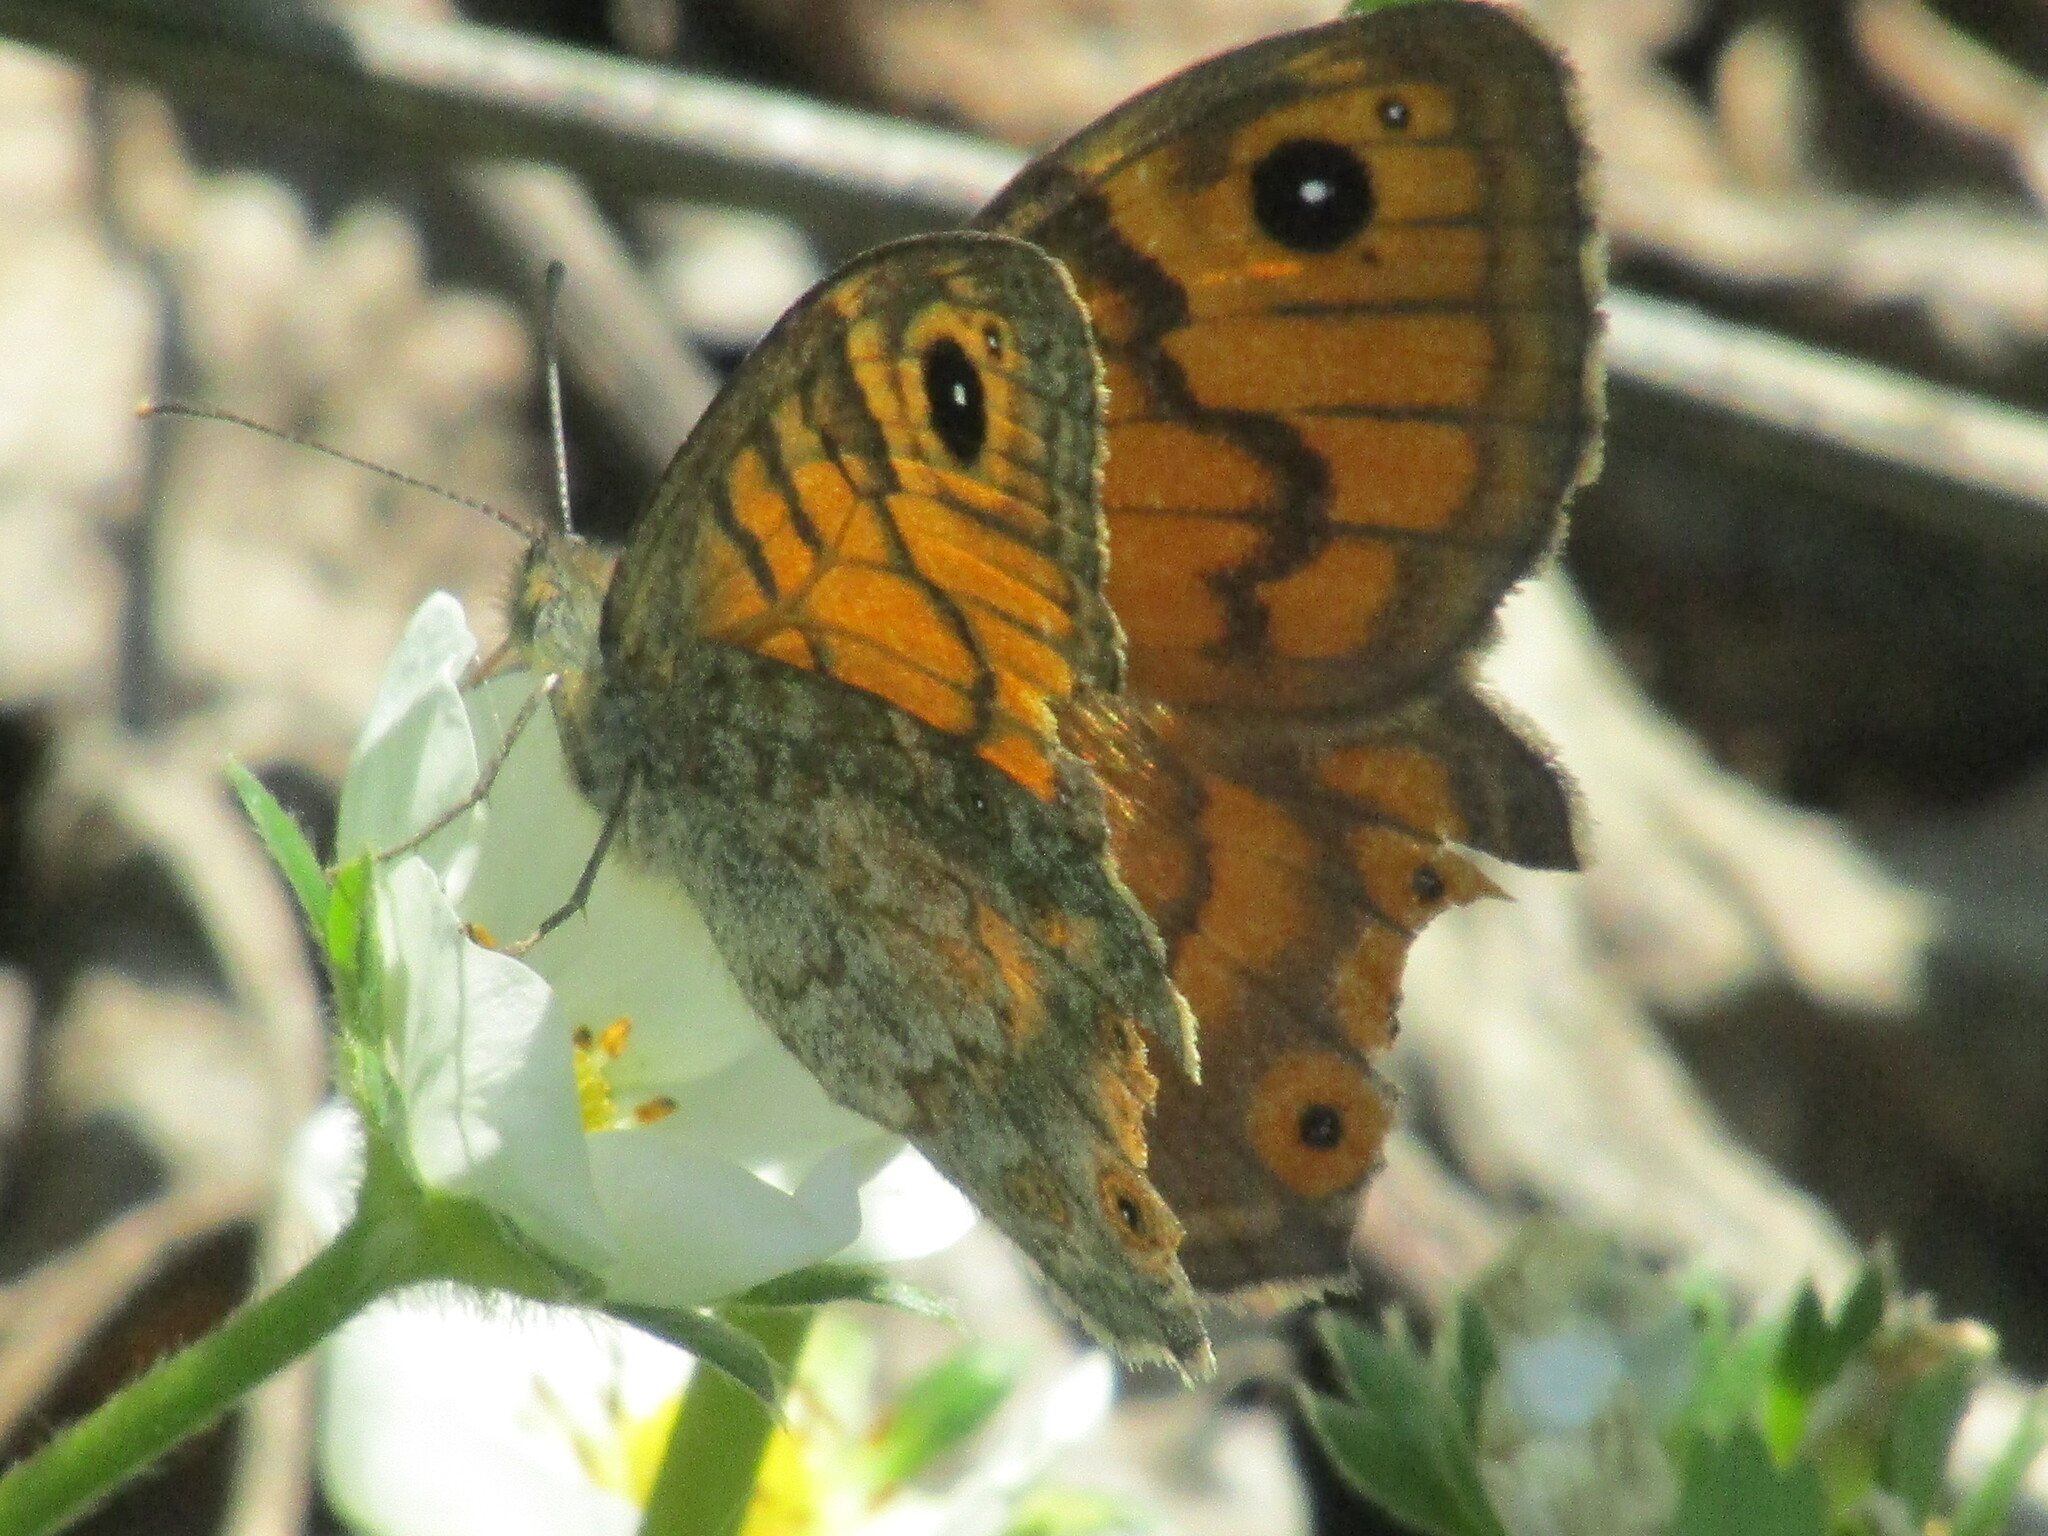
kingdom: Animalia
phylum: Arthropoda
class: Insecta
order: Lepidoptera
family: Nymphalidae
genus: Pararge
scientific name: Pararge Lasiommata megera
